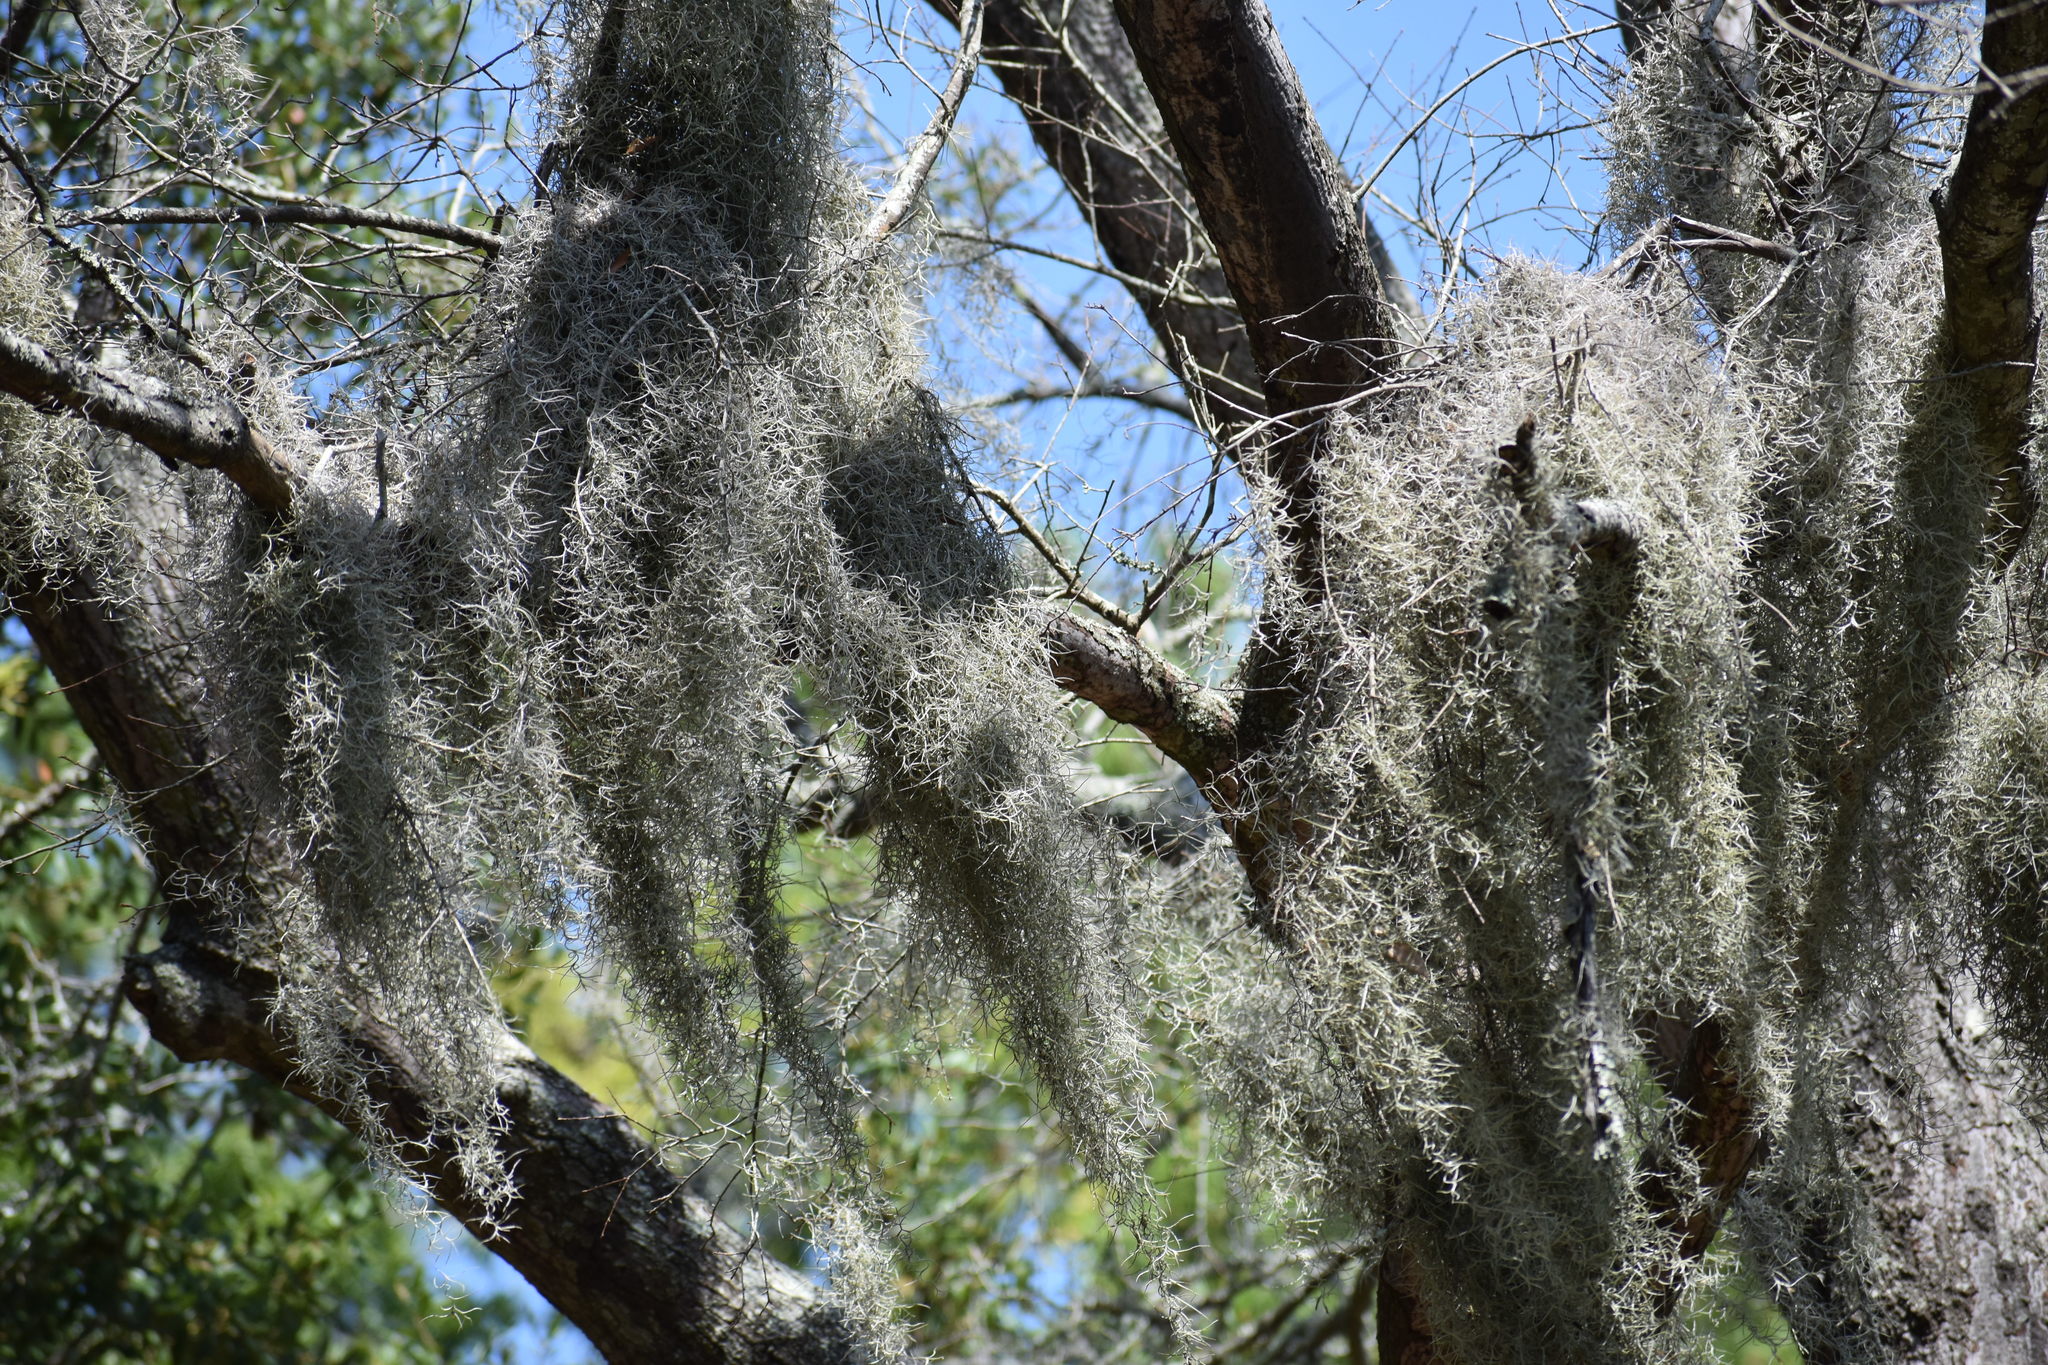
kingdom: Plantae
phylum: Tracheophyta
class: Liliopsida
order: Poales
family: Bromeliaceae
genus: Tillandsia
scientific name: Tillandsia usneoides
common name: Spanish moss
